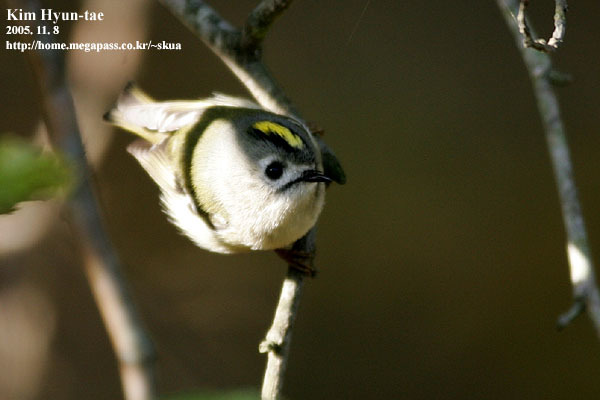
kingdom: Animalia
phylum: Chordata
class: Aves
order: Passeriformes
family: Regulidae
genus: Regulus
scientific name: Regulus regulus
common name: Goldcrest
